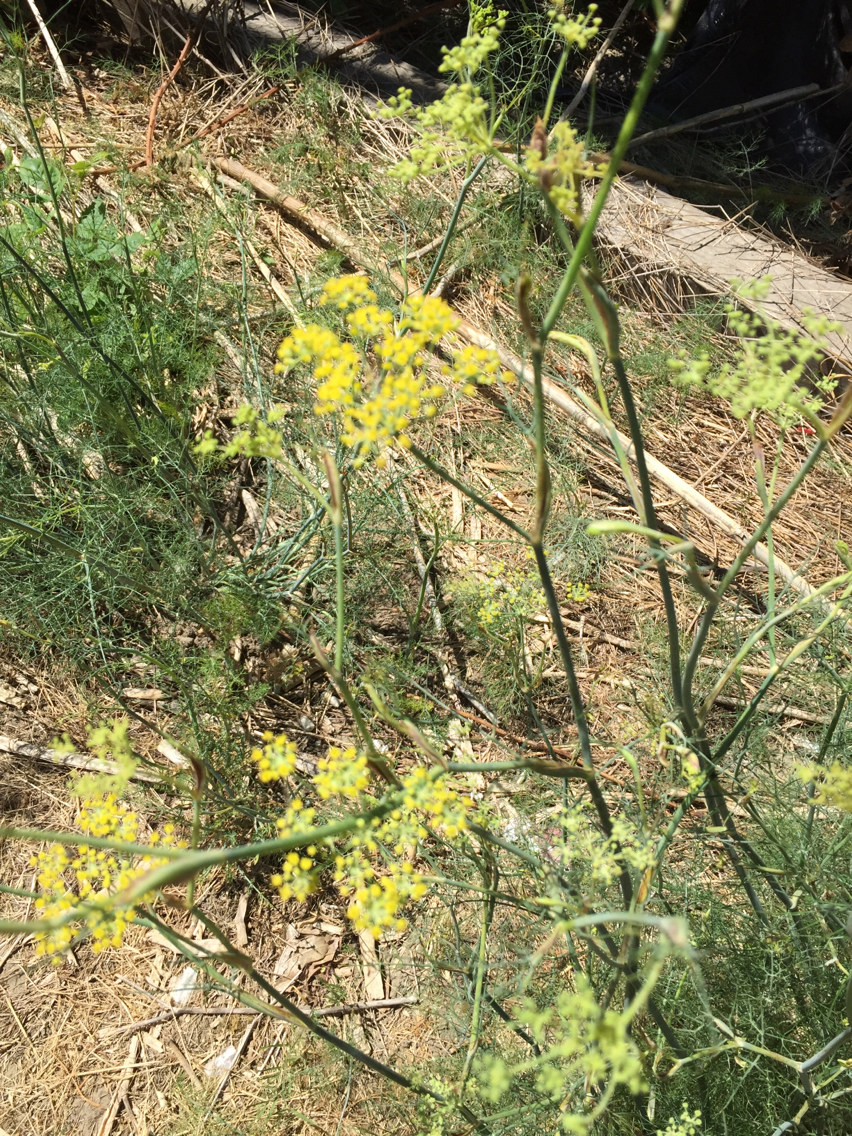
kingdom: Plantae
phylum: Tracheophyta
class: Magnoliopsida
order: Apiales
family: Apiaceae
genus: Foeniculum
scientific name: Foeniculum vulgare
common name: Fennel
